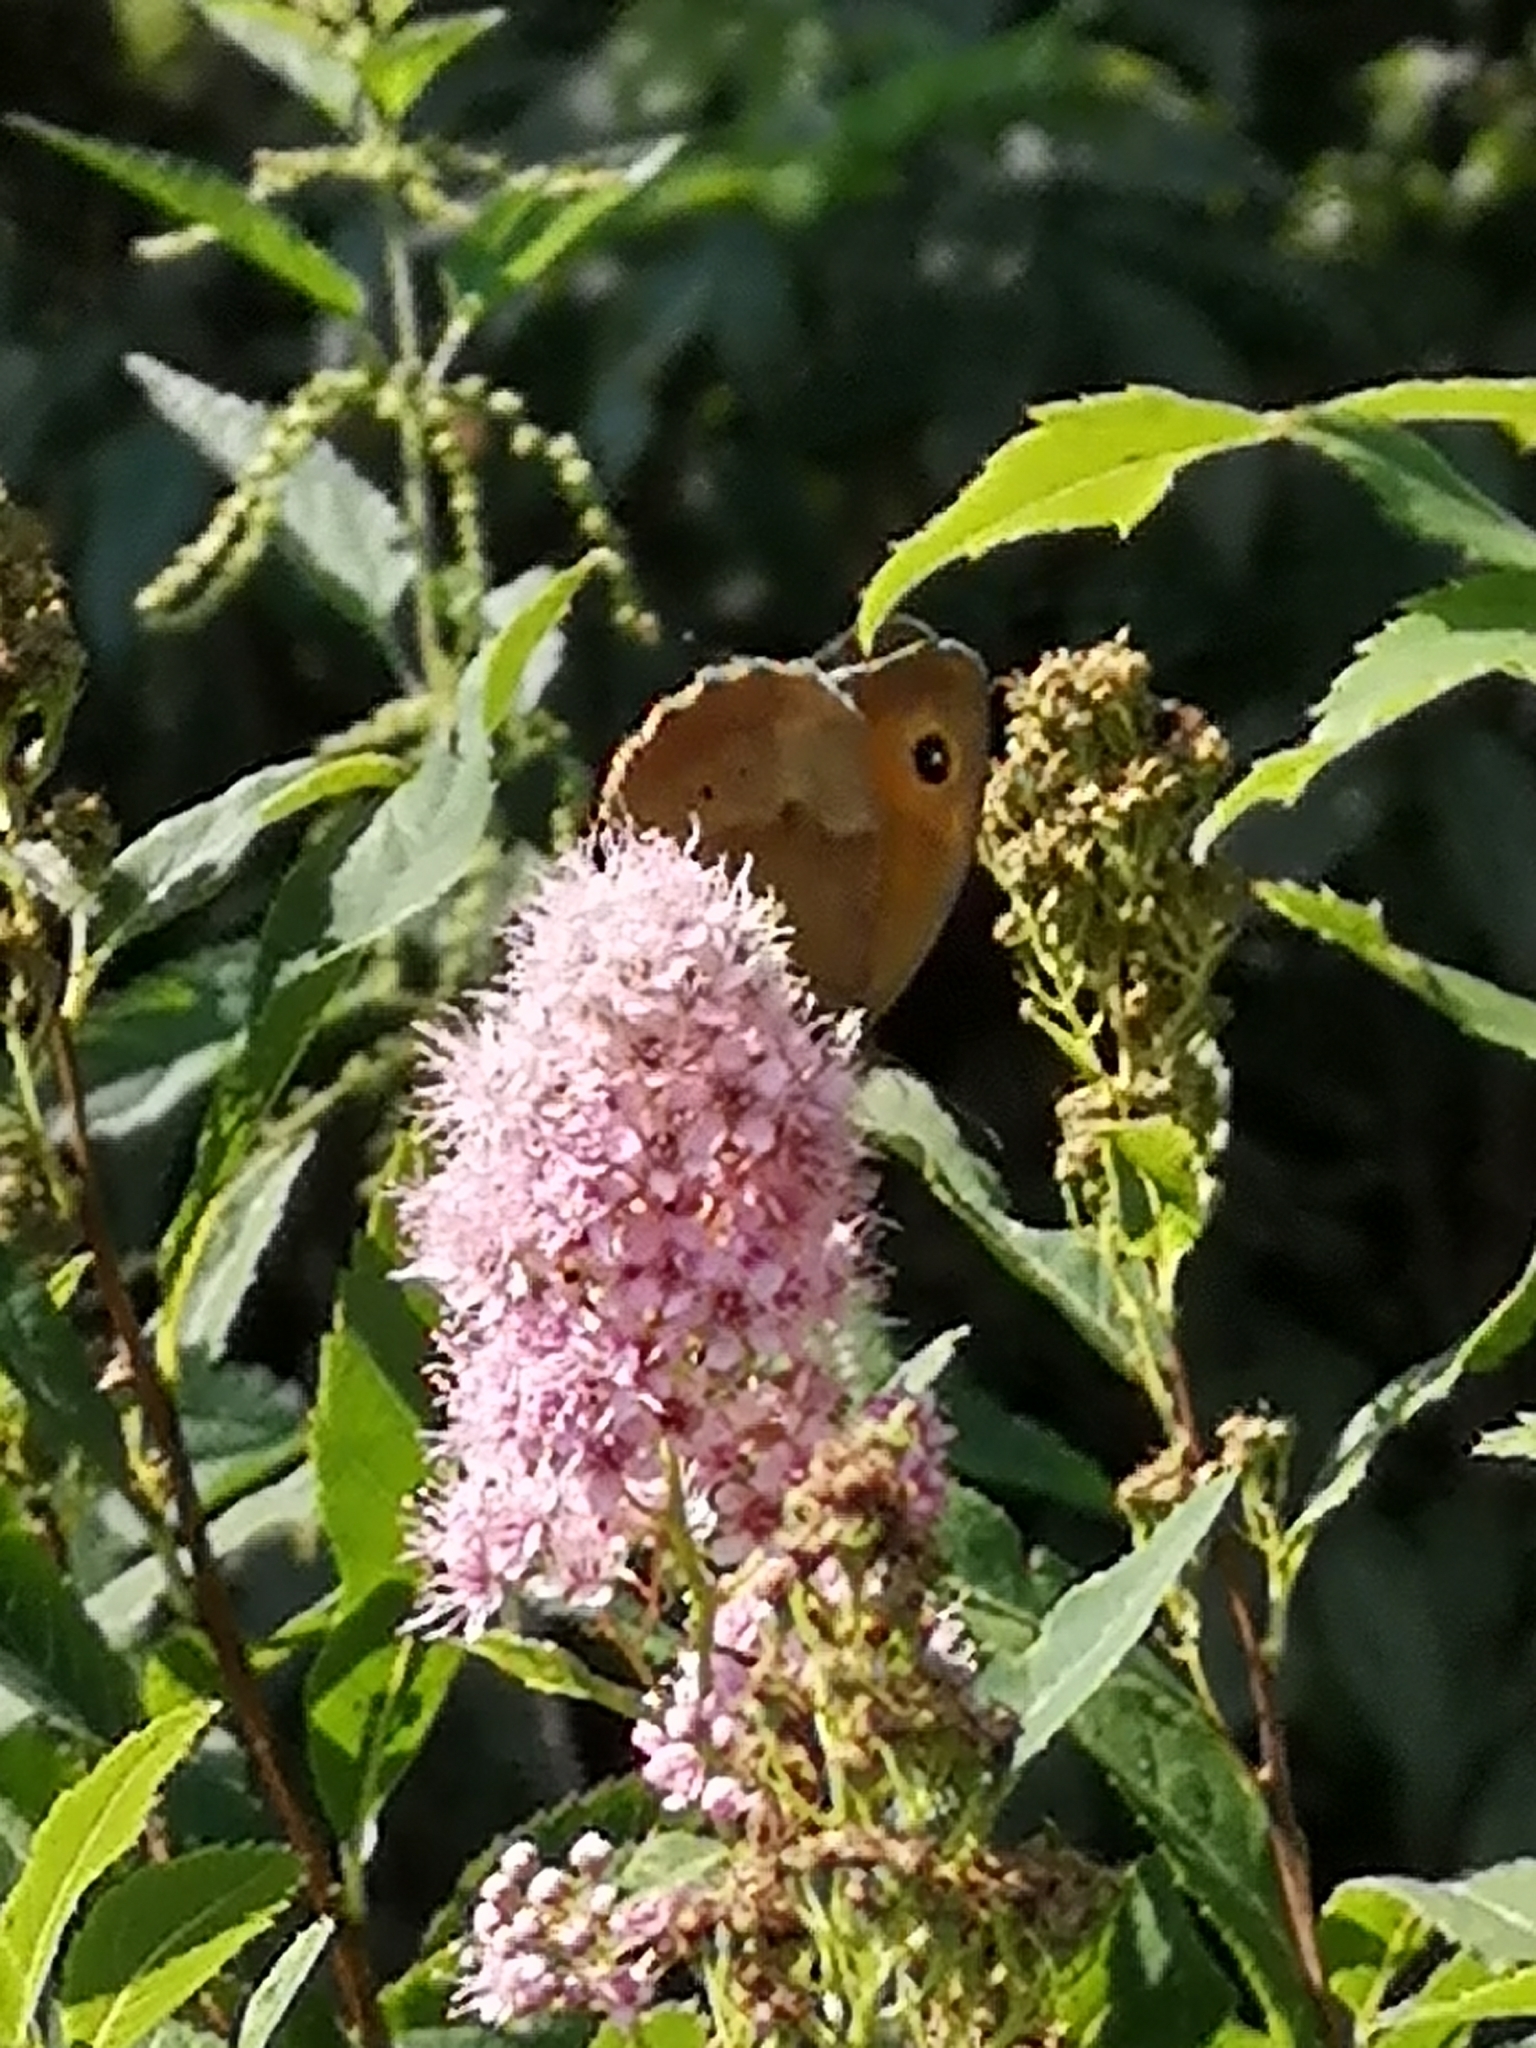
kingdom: Animalia
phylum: Arthropoda
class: Insecta
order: Lepidoptera
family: Nymphalidae
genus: Maniola
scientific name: Maniola jurtina
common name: Meadow brown
